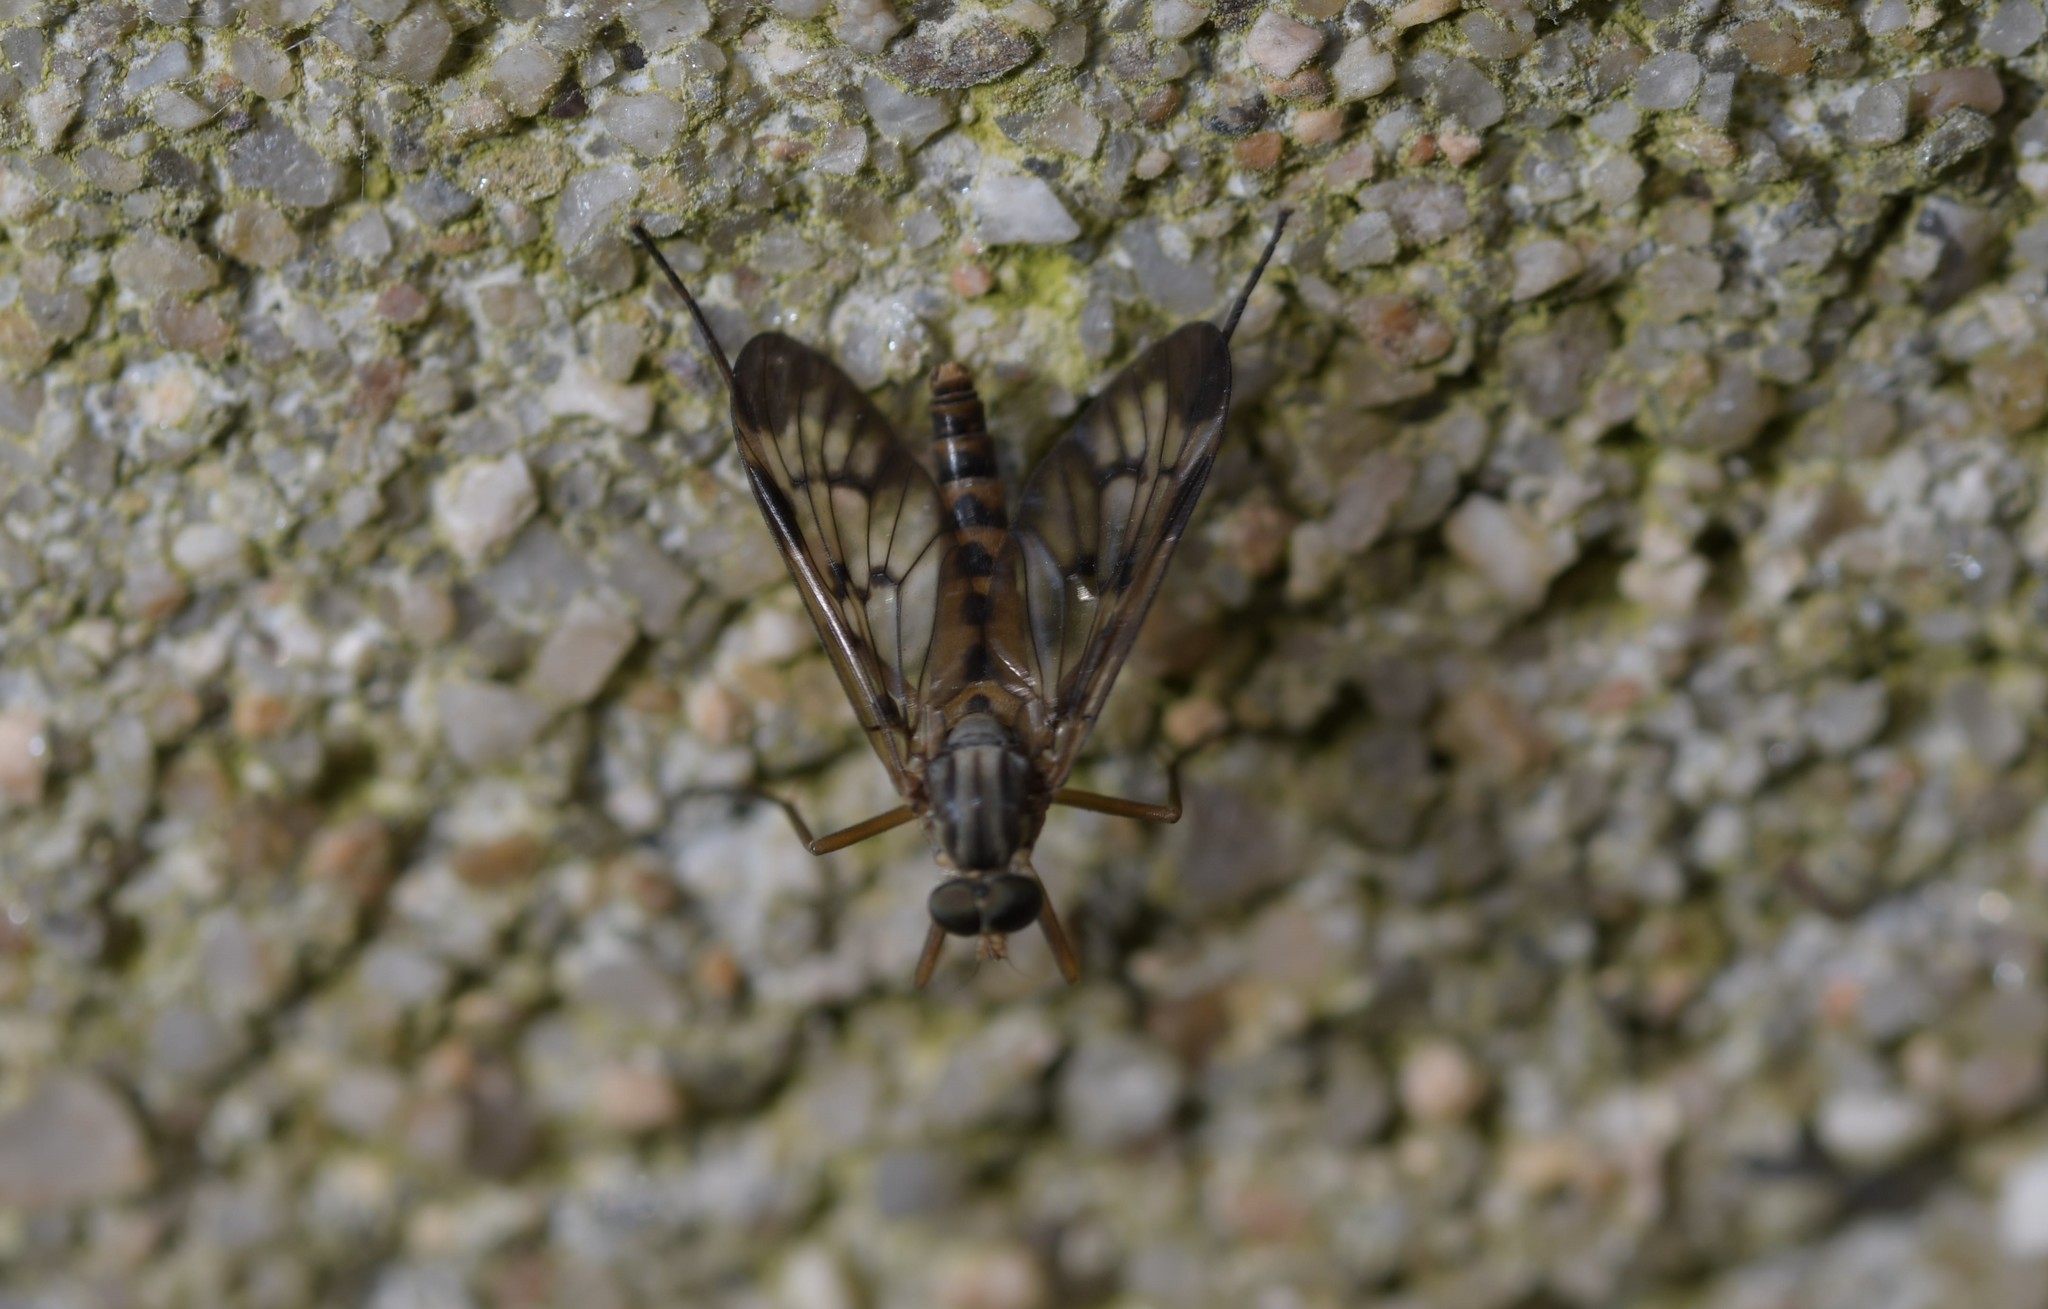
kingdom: Animalia
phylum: Arthropoda
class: Insecta
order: Diptera
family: Rhagionidae
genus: Rhagio
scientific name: Rhagio atlanticus
